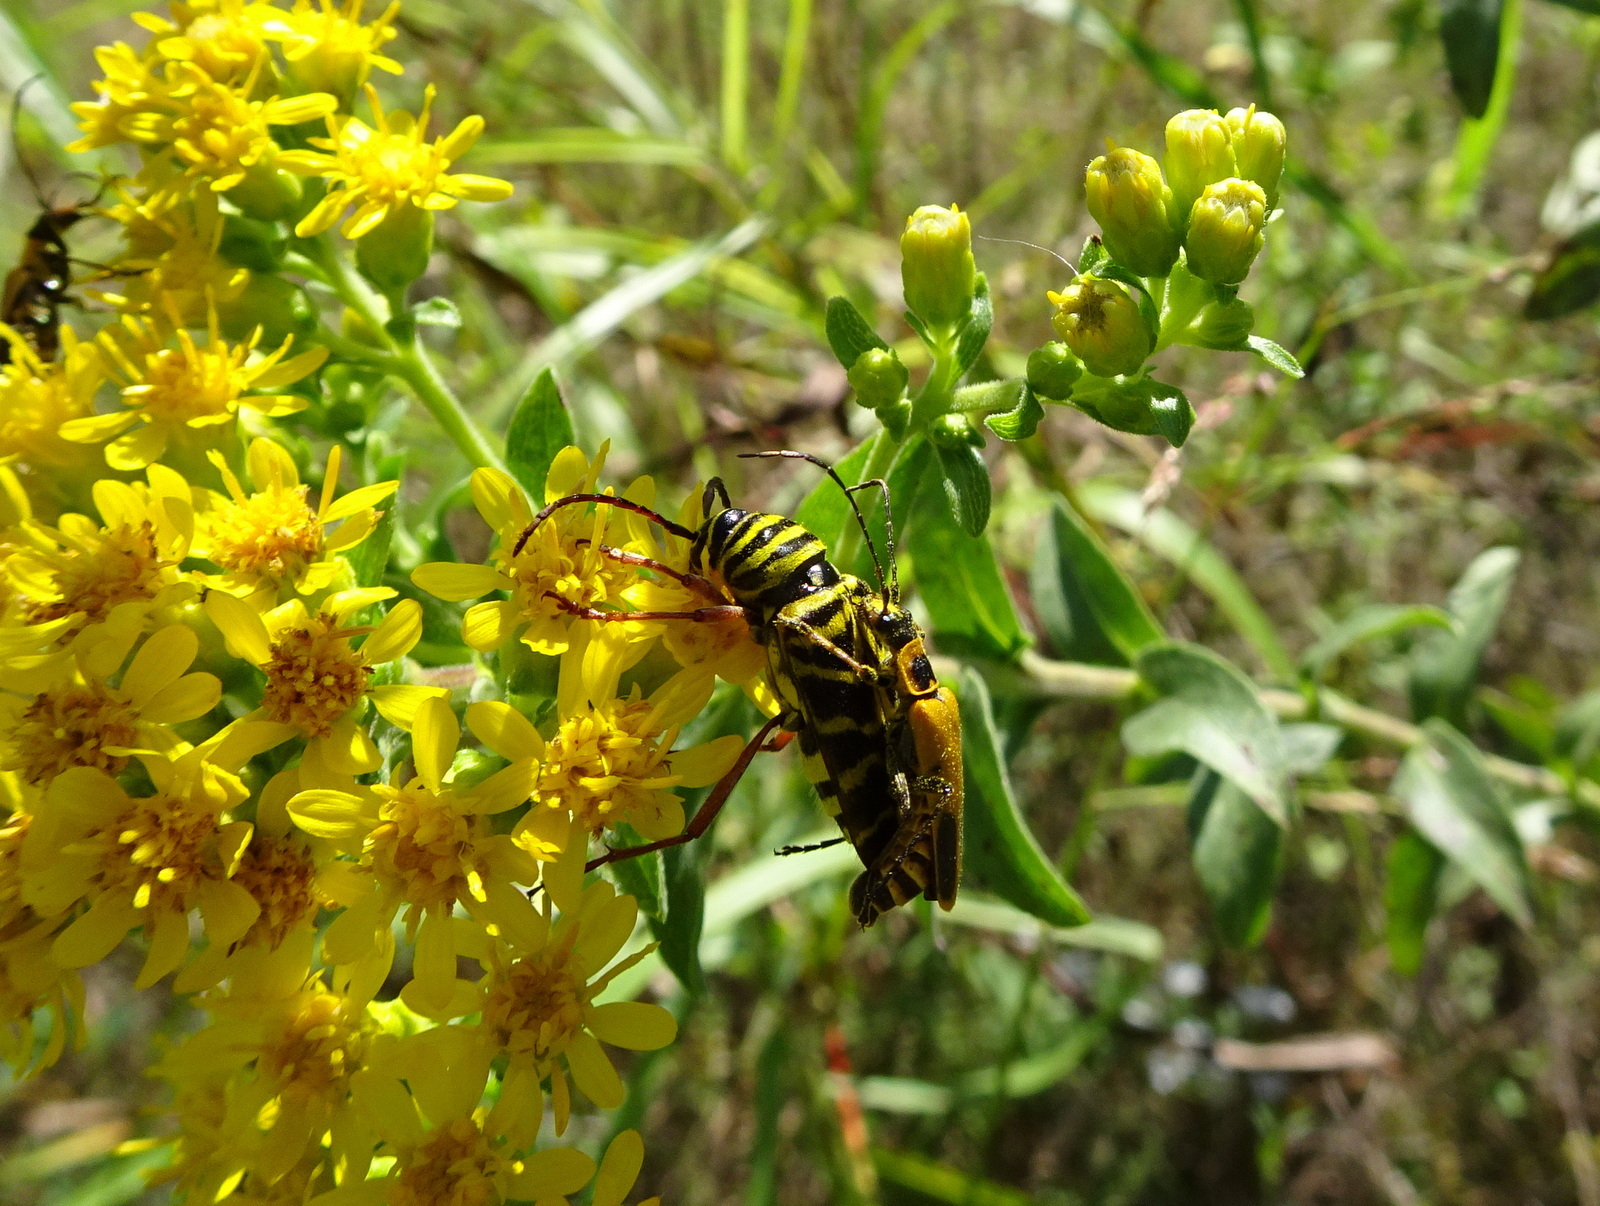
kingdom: Animalia
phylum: Arthropoda
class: Insecta
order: Coleoptera
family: Cerambycidae
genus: Megacyllene
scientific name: Megacyllene robiniae
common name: Locust borer
